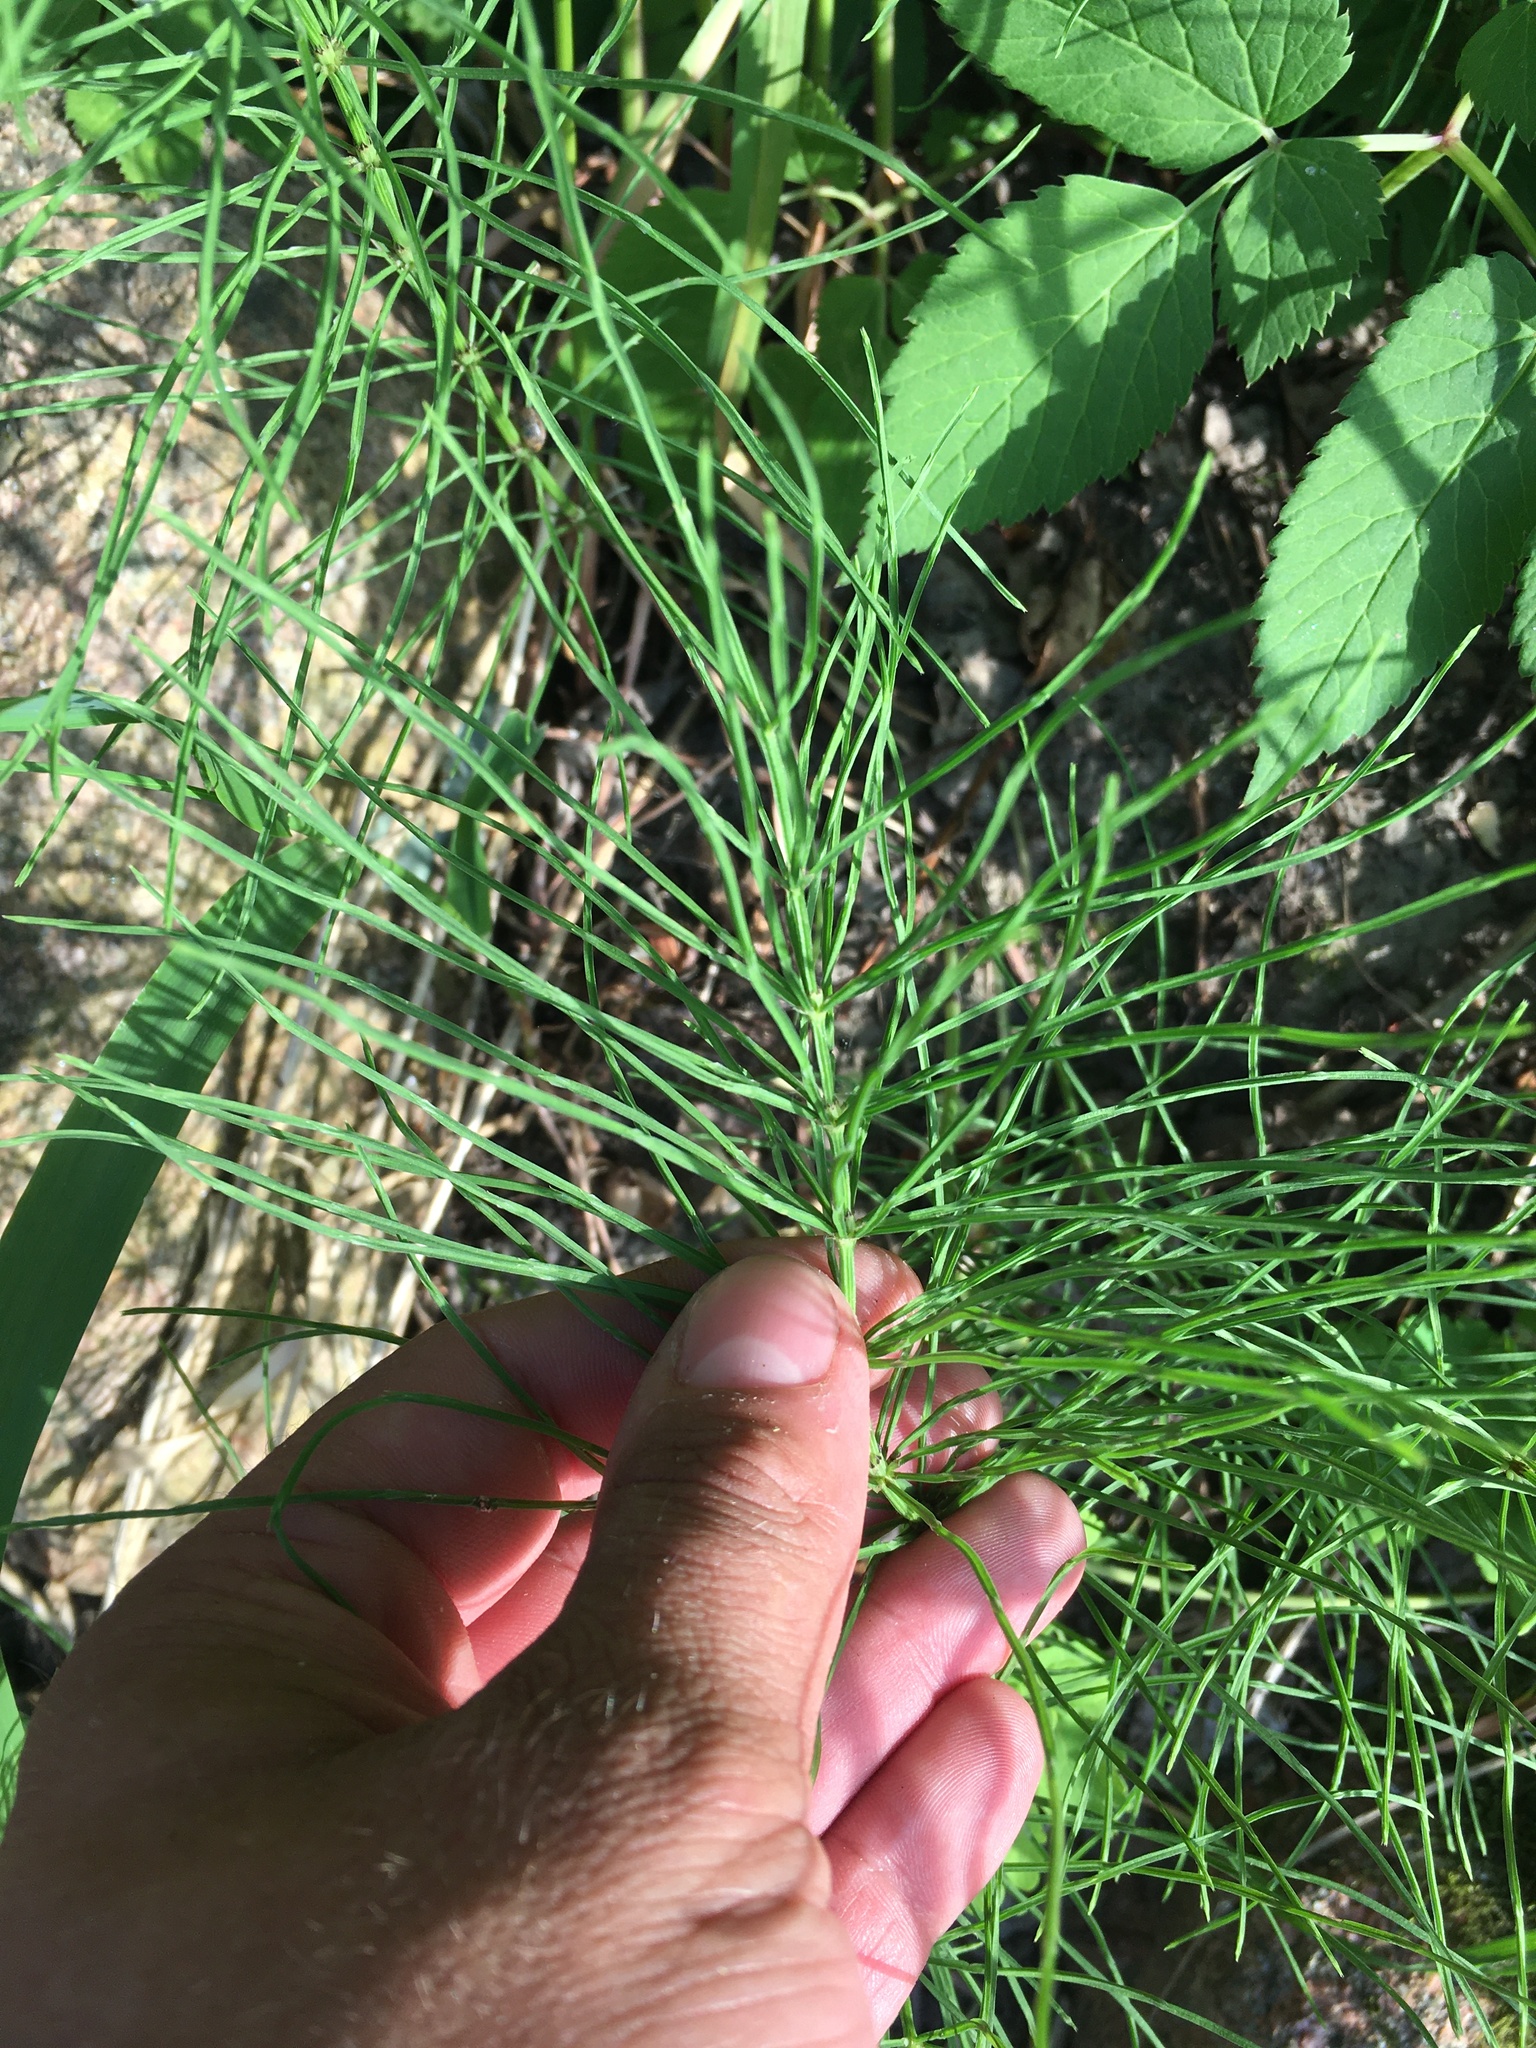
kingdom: Plantae
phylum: Tracheophyta
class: Polypodiopsida
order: Equisetales
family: Equisetaceae
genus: Equisetum
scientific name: Equisetum arvense
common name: Field horsetail
